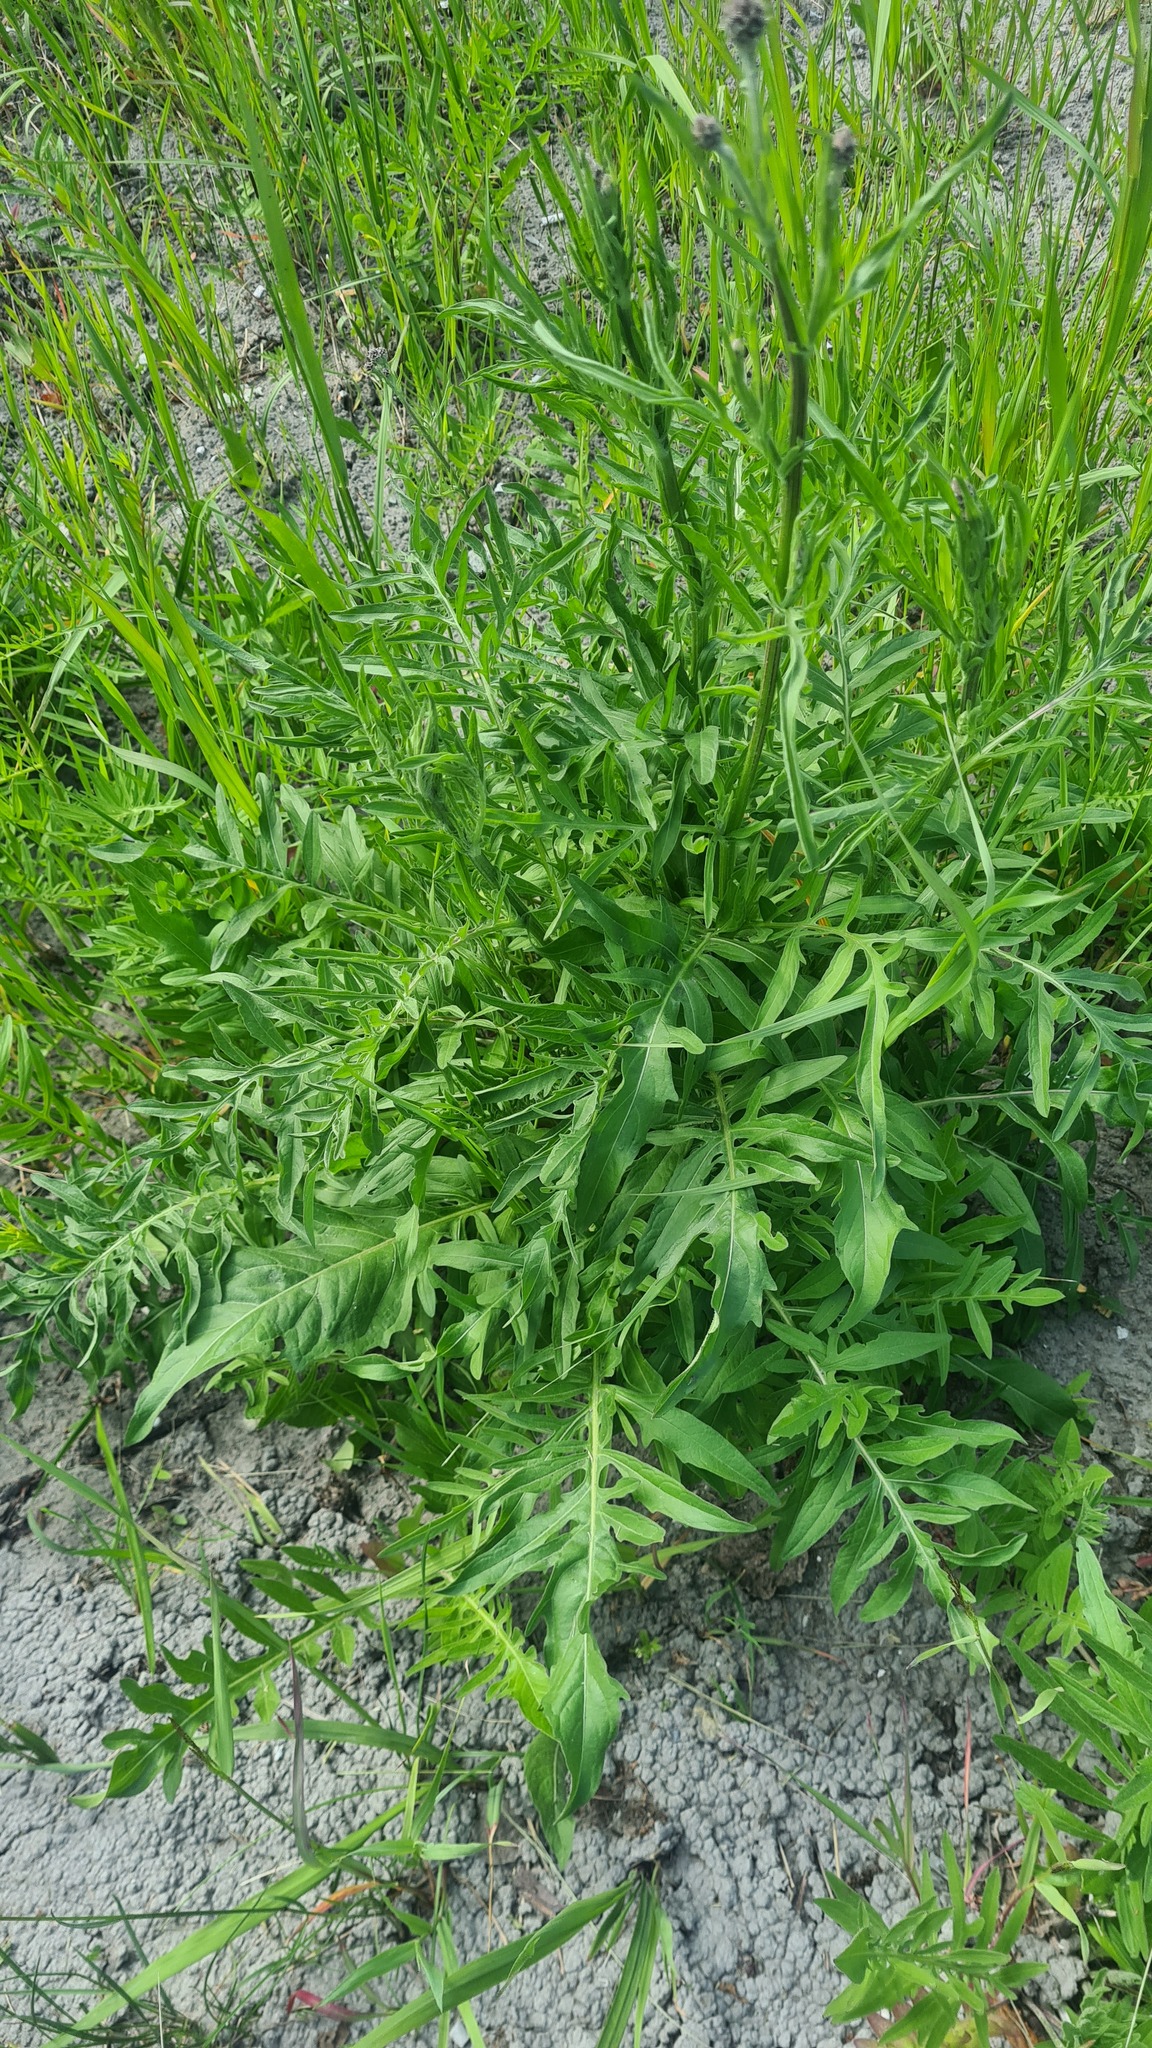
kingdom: Plantae
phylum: Tracheophyta
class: Magnoliopsida
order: Asterales
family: Asteraceae
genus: Centaurea
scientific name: Centaurea scabiosa
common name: Greater knapweed
